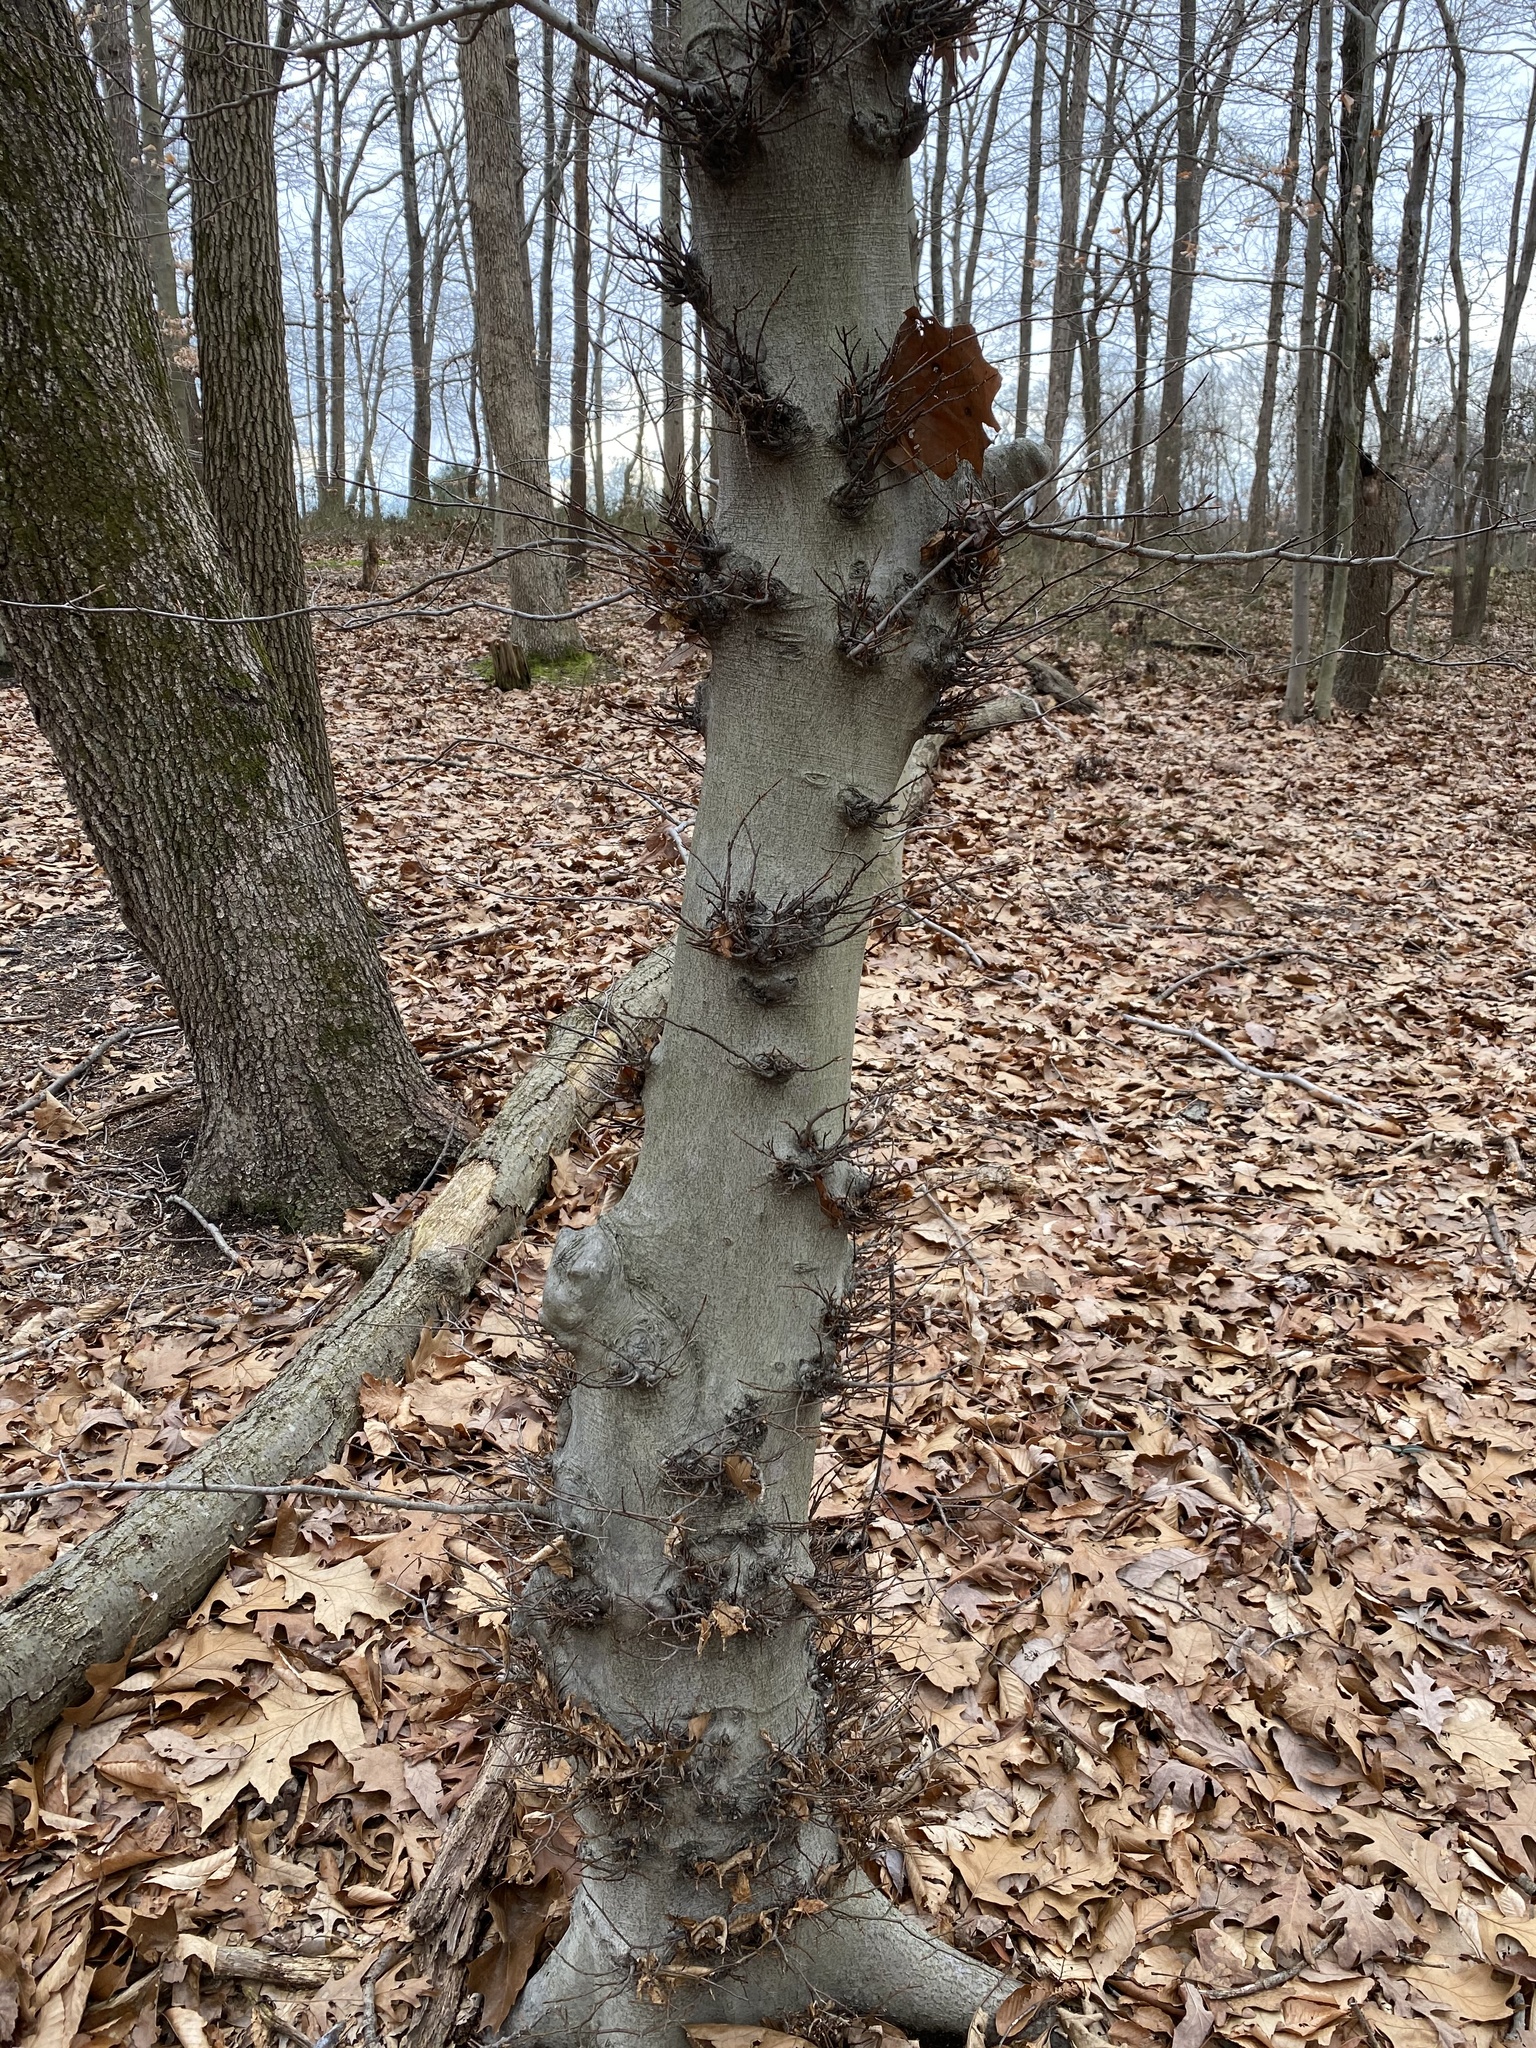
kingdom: Plantae
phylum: Tracheophyta
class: Magnoliopsida
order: Fagales
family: Fagaceae
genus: Fagus
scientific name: Fagus grandifolia
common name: American beech
